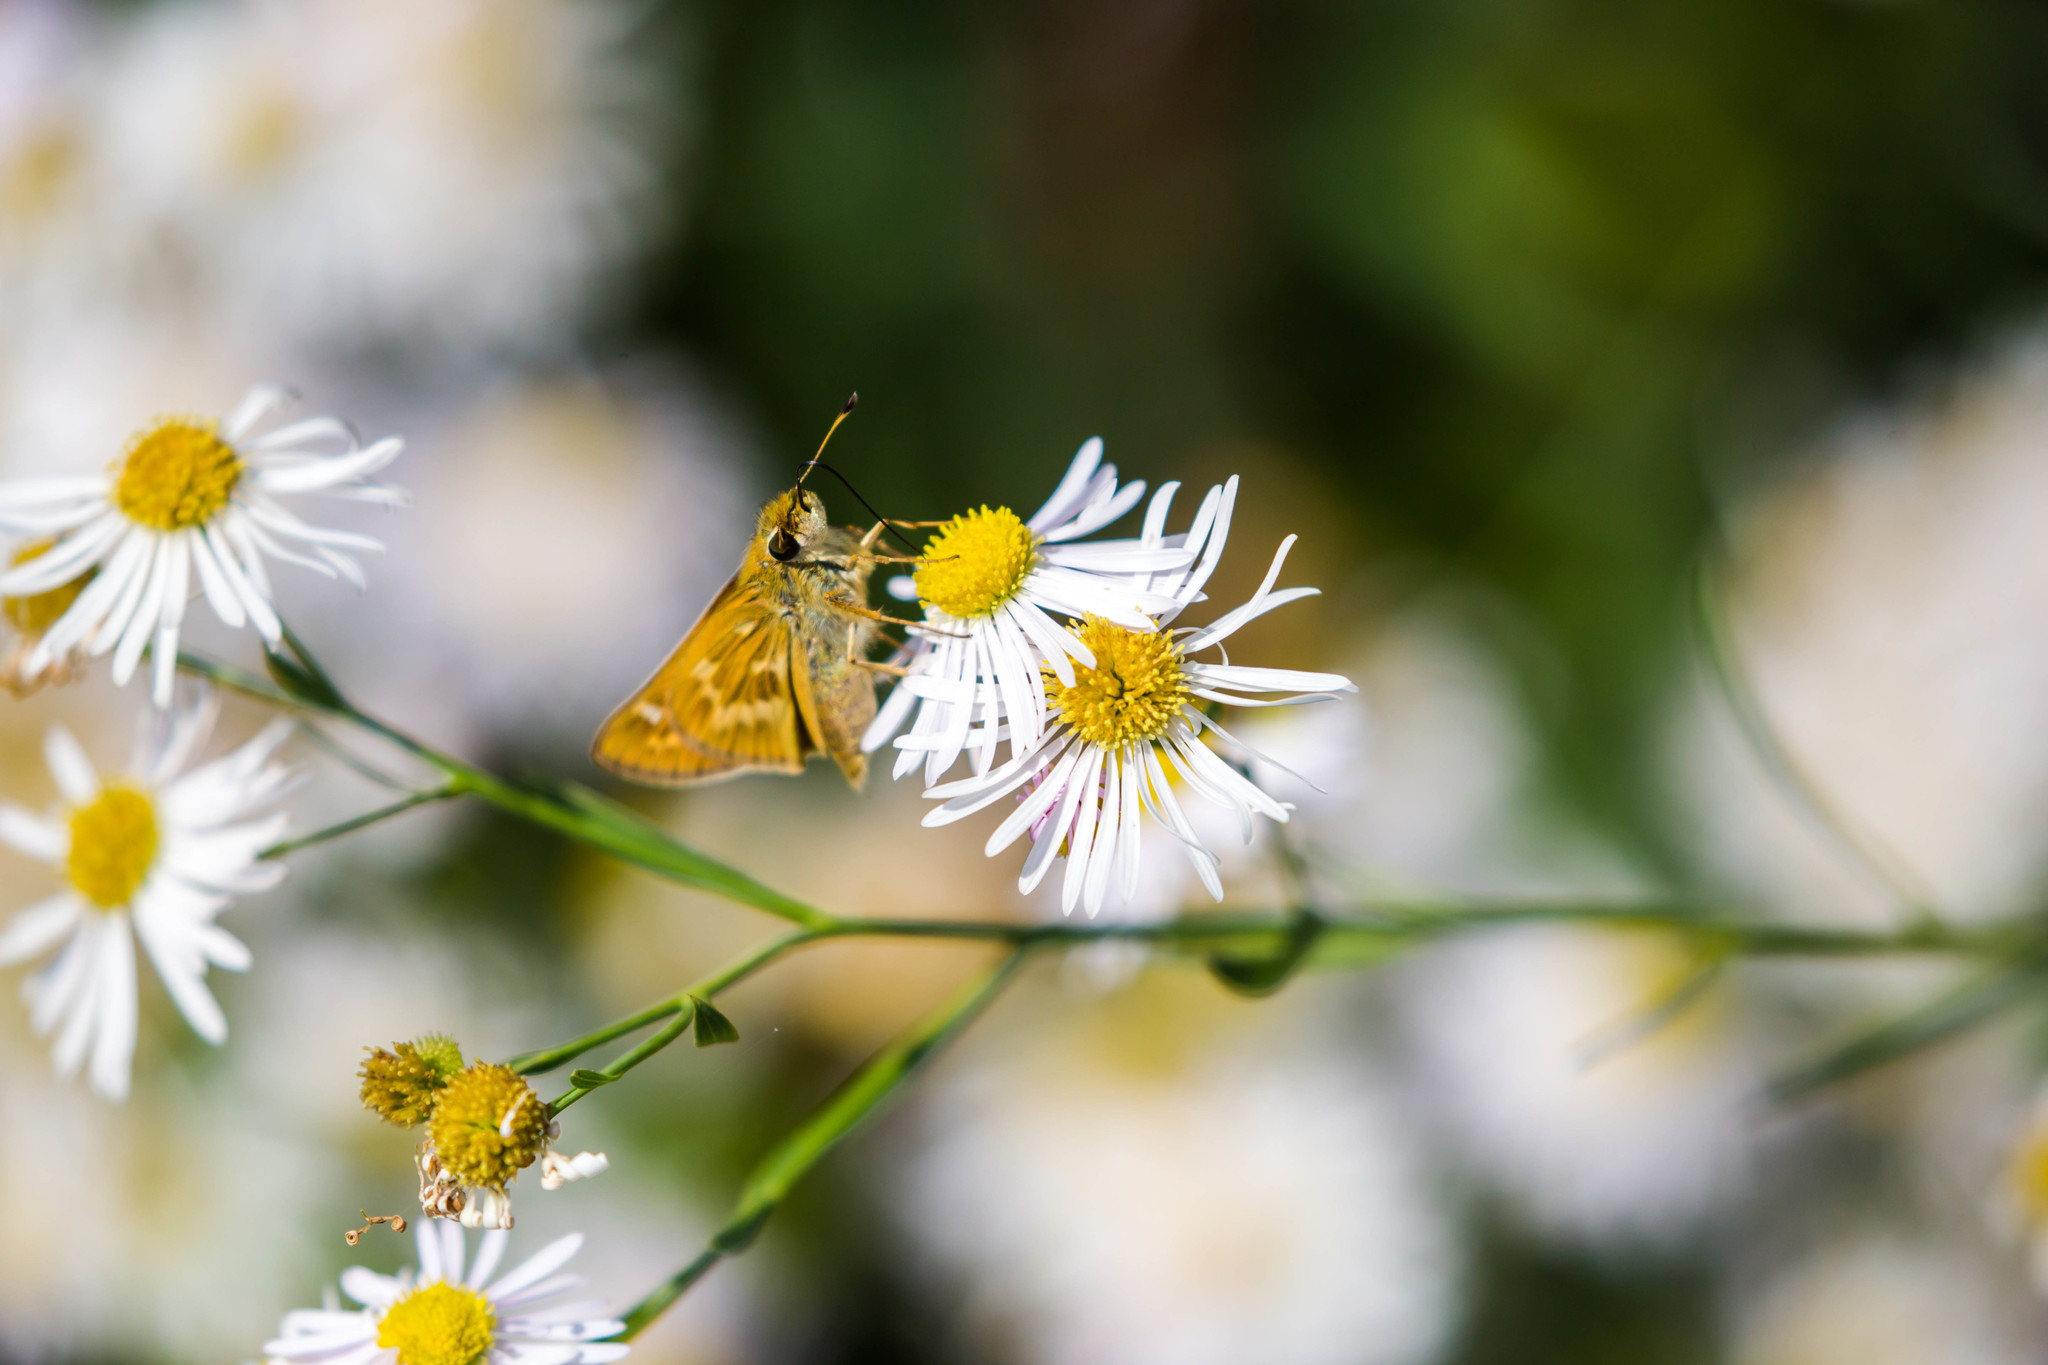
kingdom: Animalia
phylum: Arthropoda
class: Insecta
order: Lepidoptera
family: Hesperiidae
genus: Atalopedes
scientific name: Atalopedes
